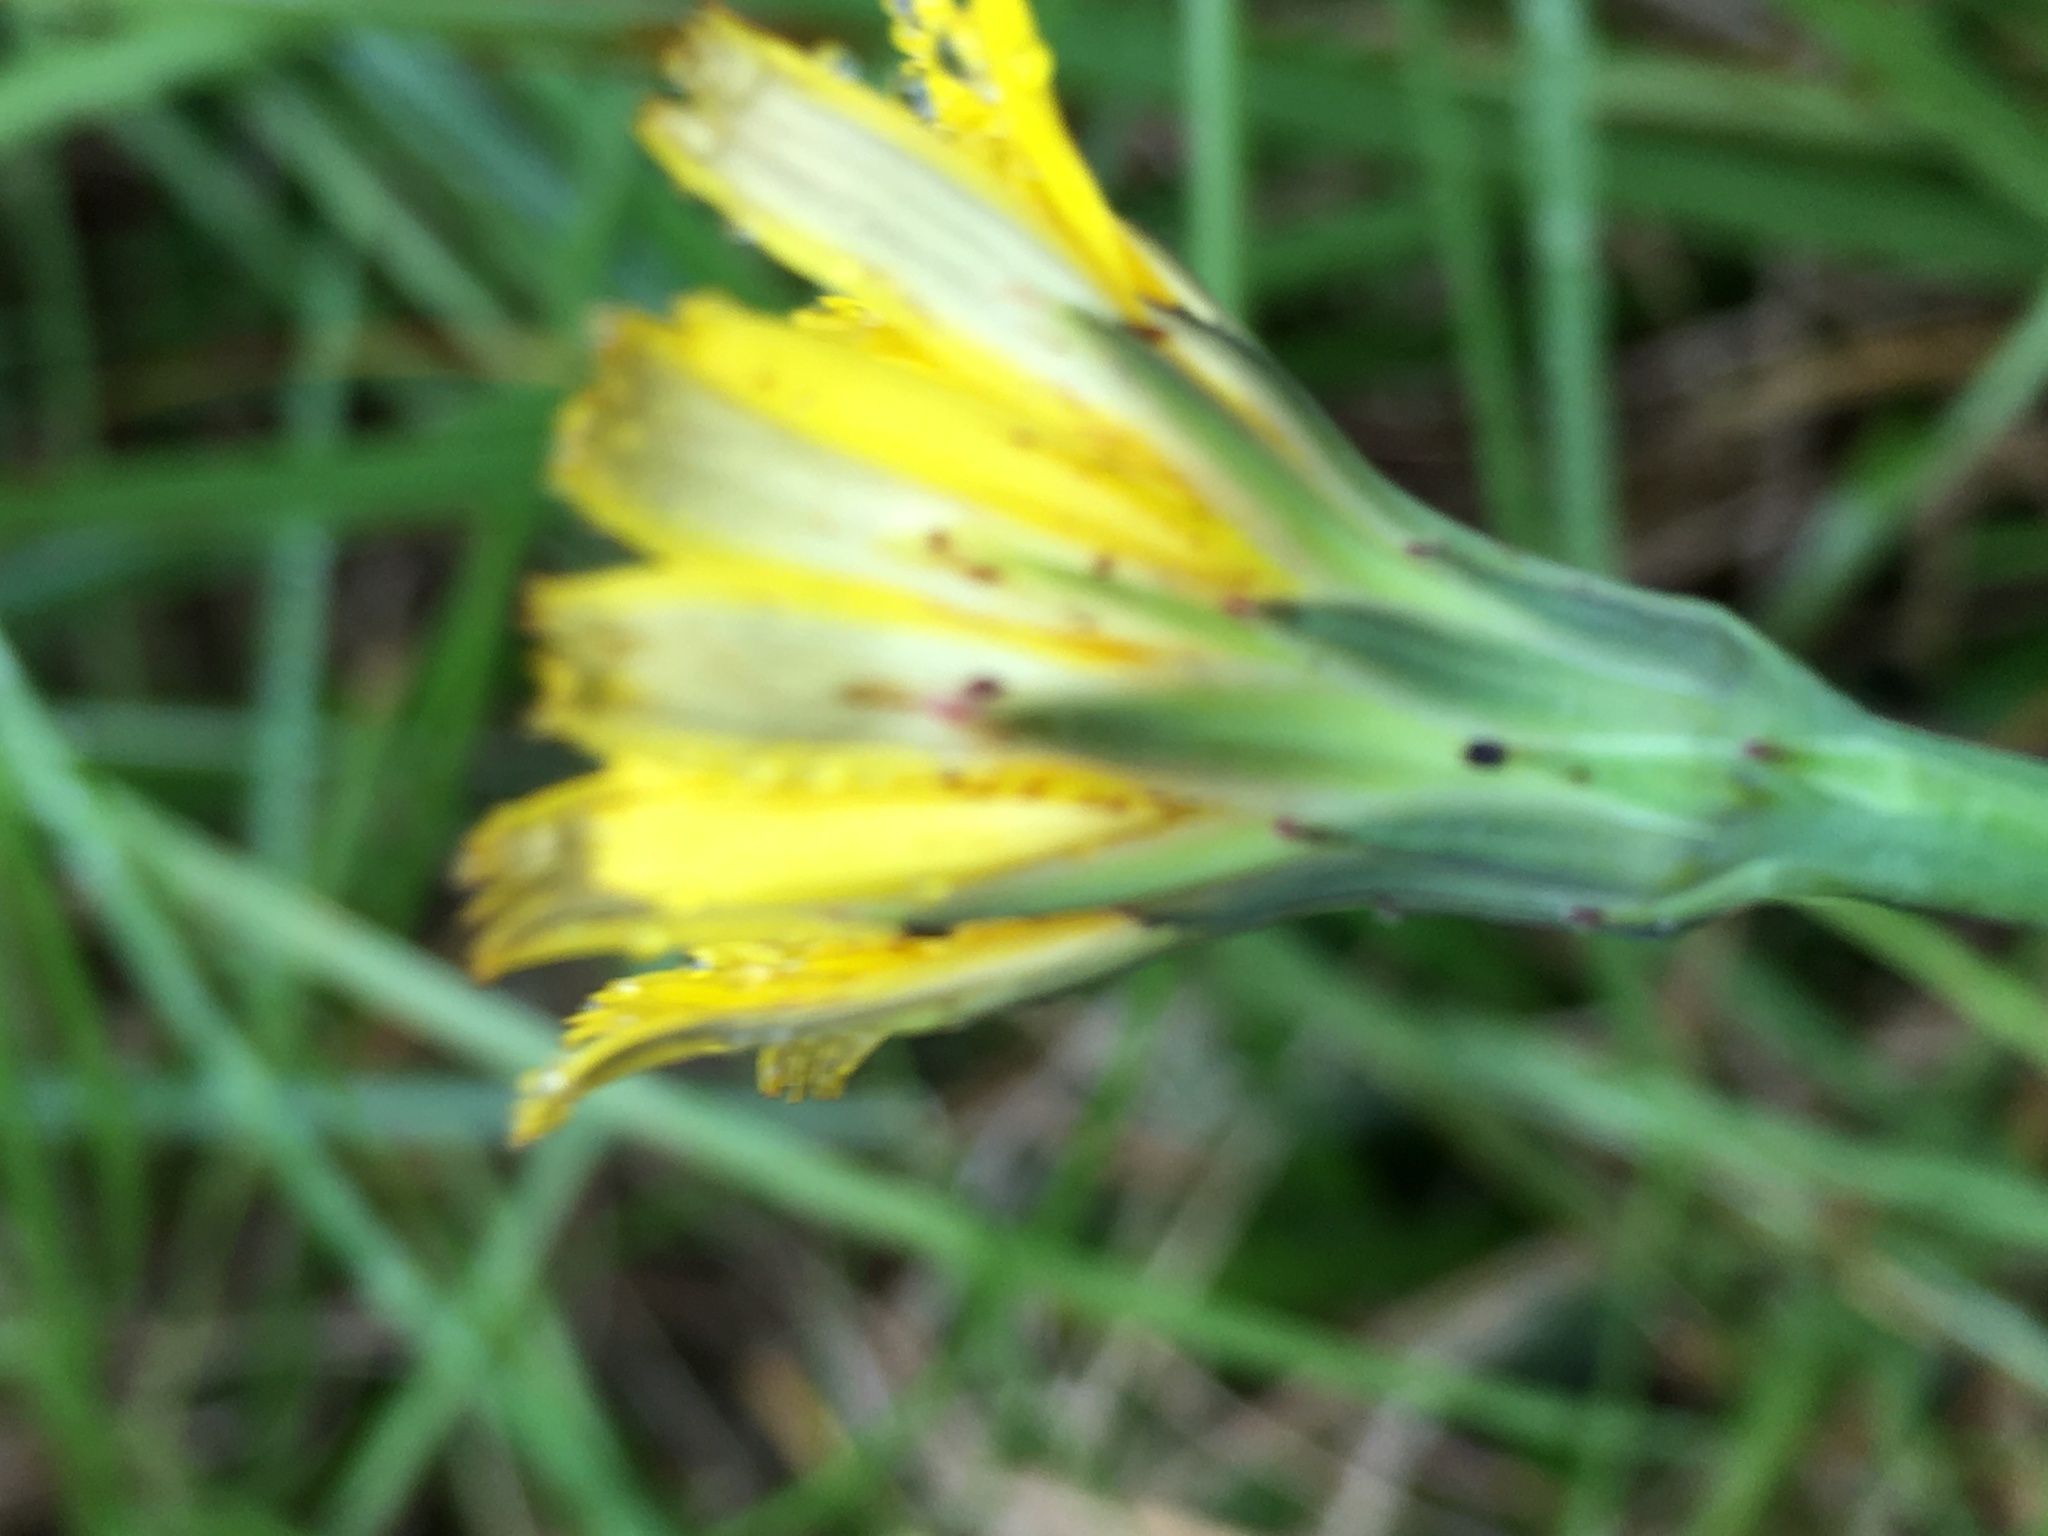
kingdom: Plantae
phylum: Tracheophyta
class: Magnoliopsida
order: Asterales
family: Asteraceae
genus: Hypochaeris
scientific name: Hypochaeris radicata
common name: Flatweed
